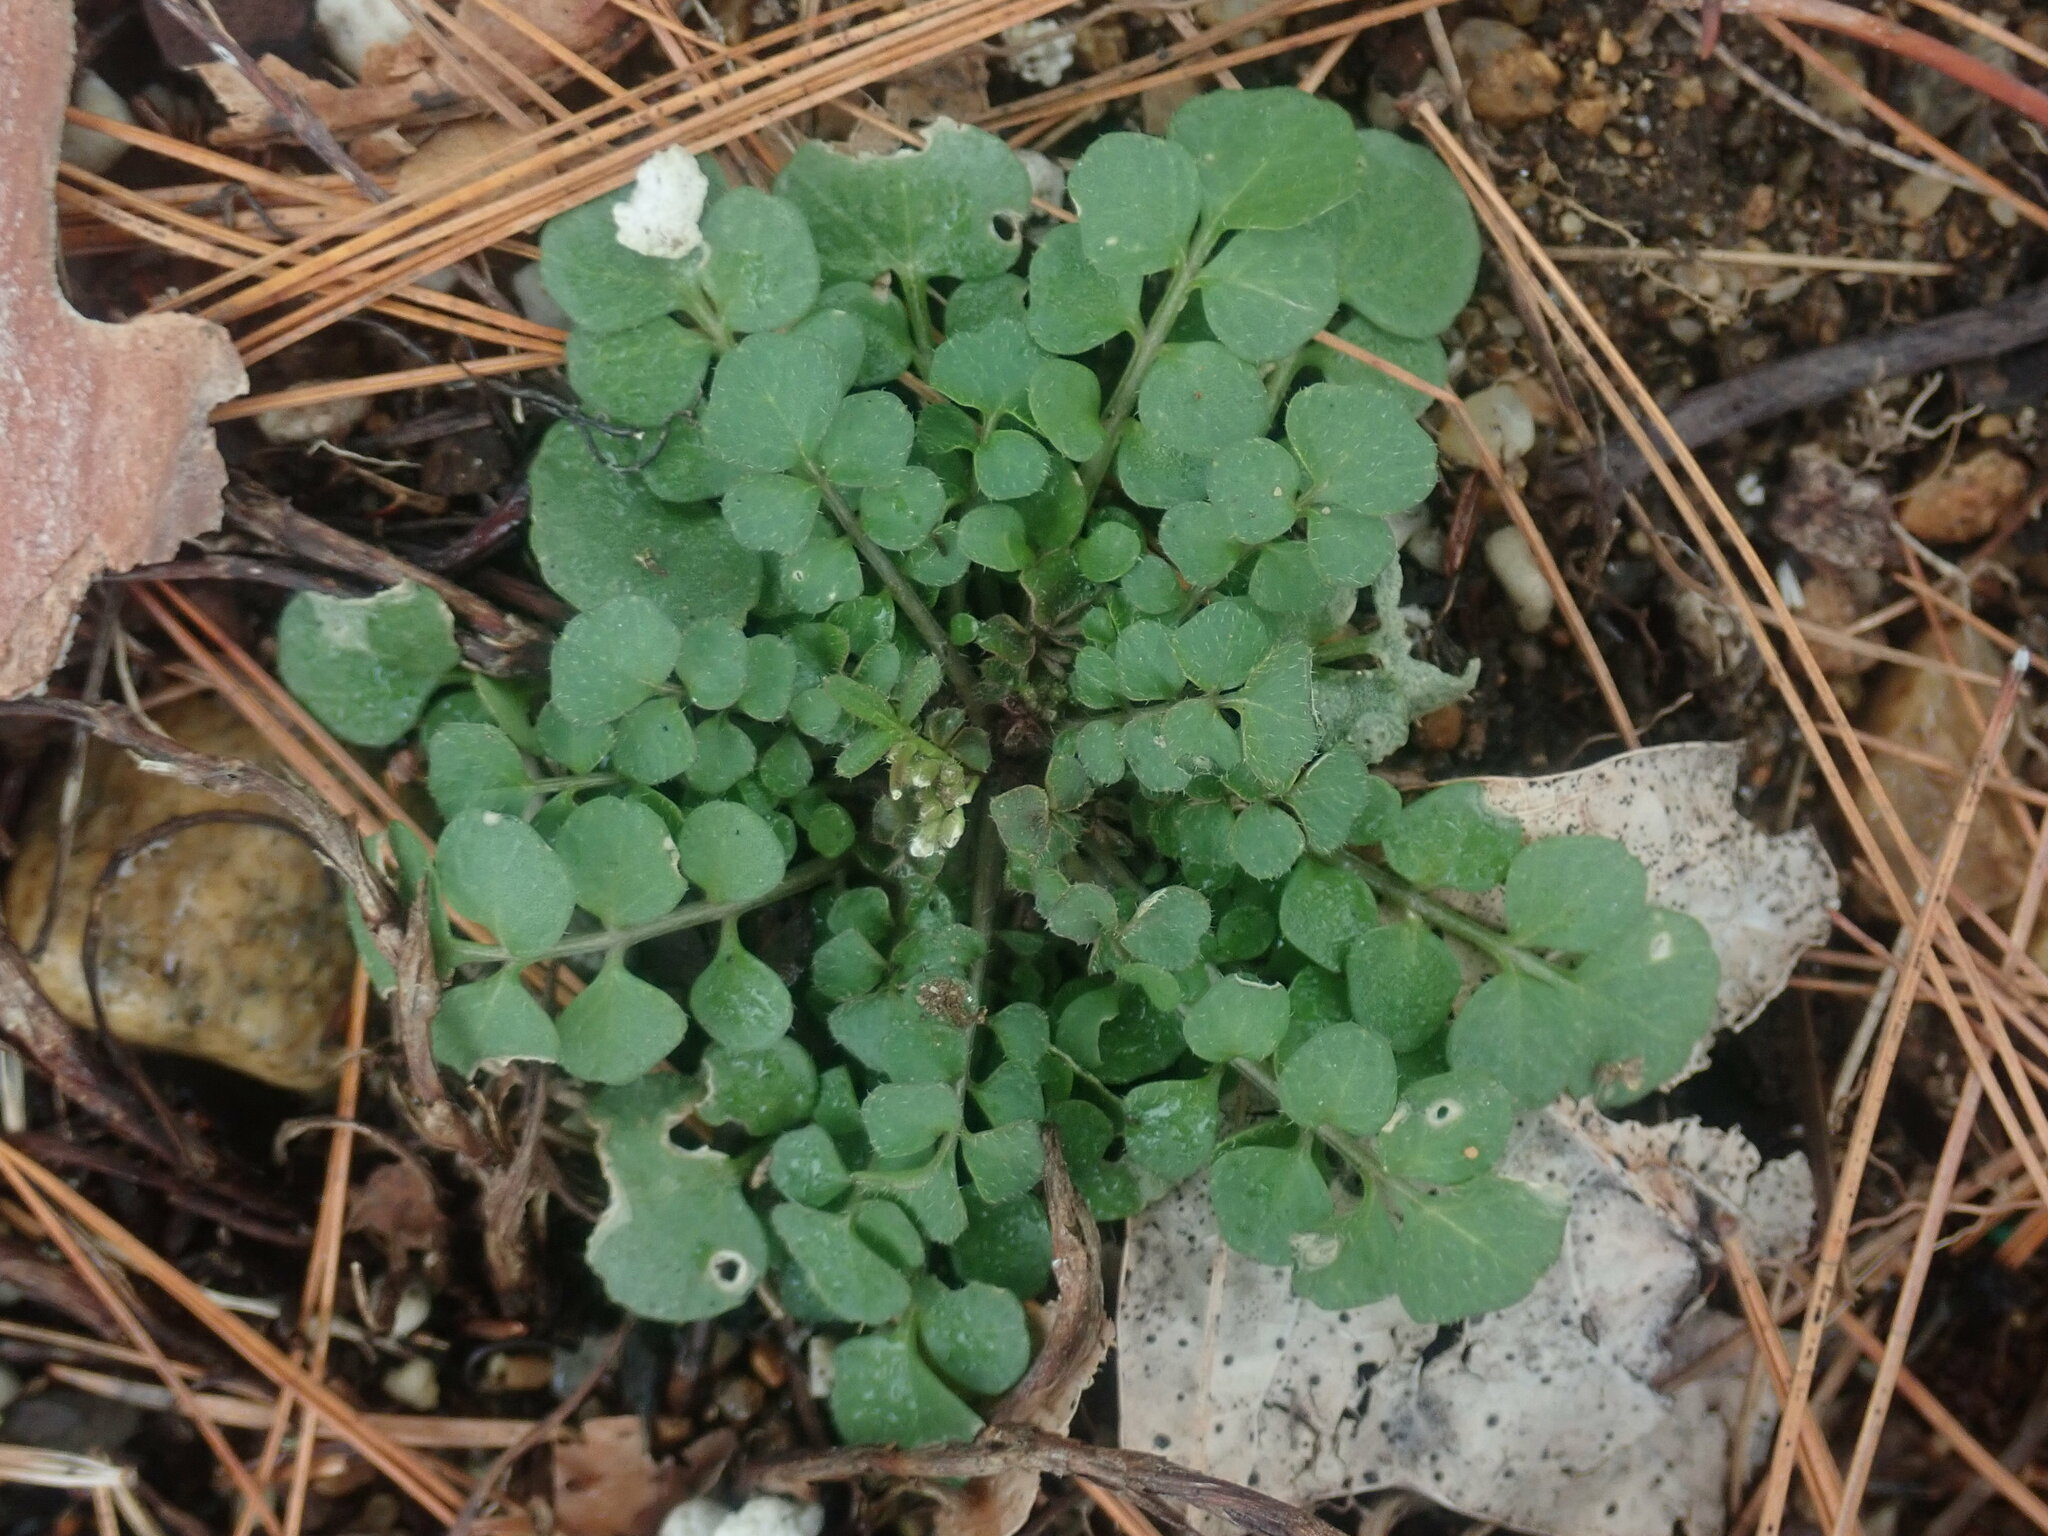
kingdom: Plantae
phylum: Tracheophyta
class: Magnoliopsida
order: Brassicales
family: Brassicaceae
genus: Cardamine
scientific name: Cardamine hirsuta
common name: Hairy bittercress
